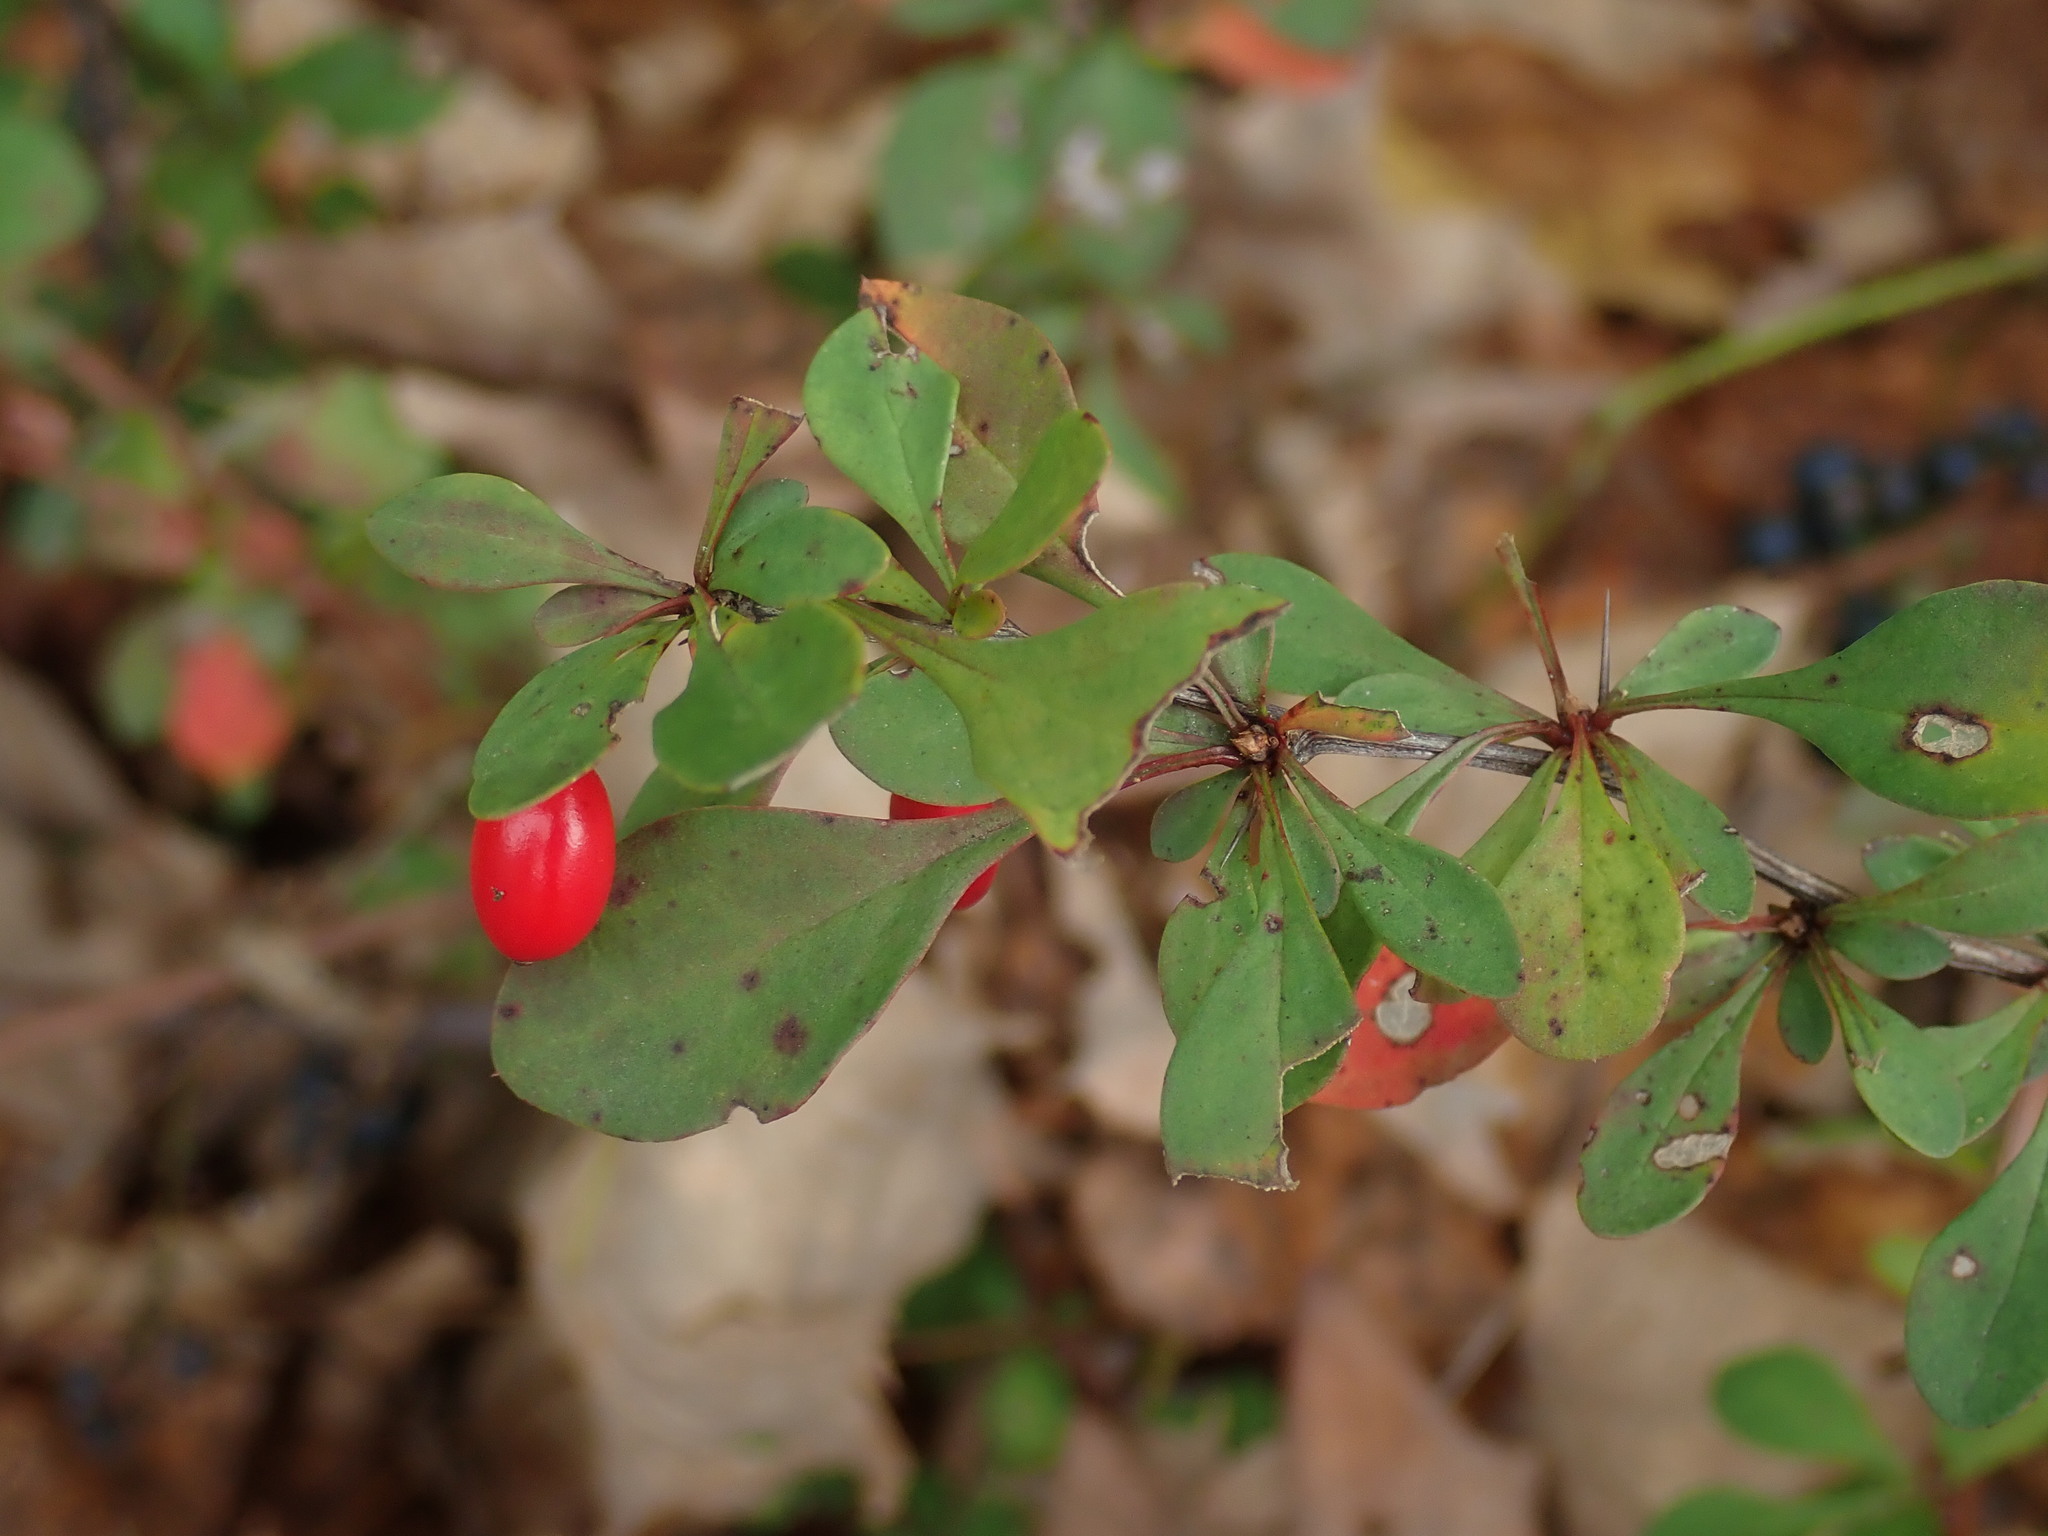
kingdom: Plantae
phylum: Tracheophyta
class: Magnoliopsida
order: Ranunculales
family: Berberidaceae
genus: Berberis
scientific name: Berberis thunbergii
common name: Japanese barberry
